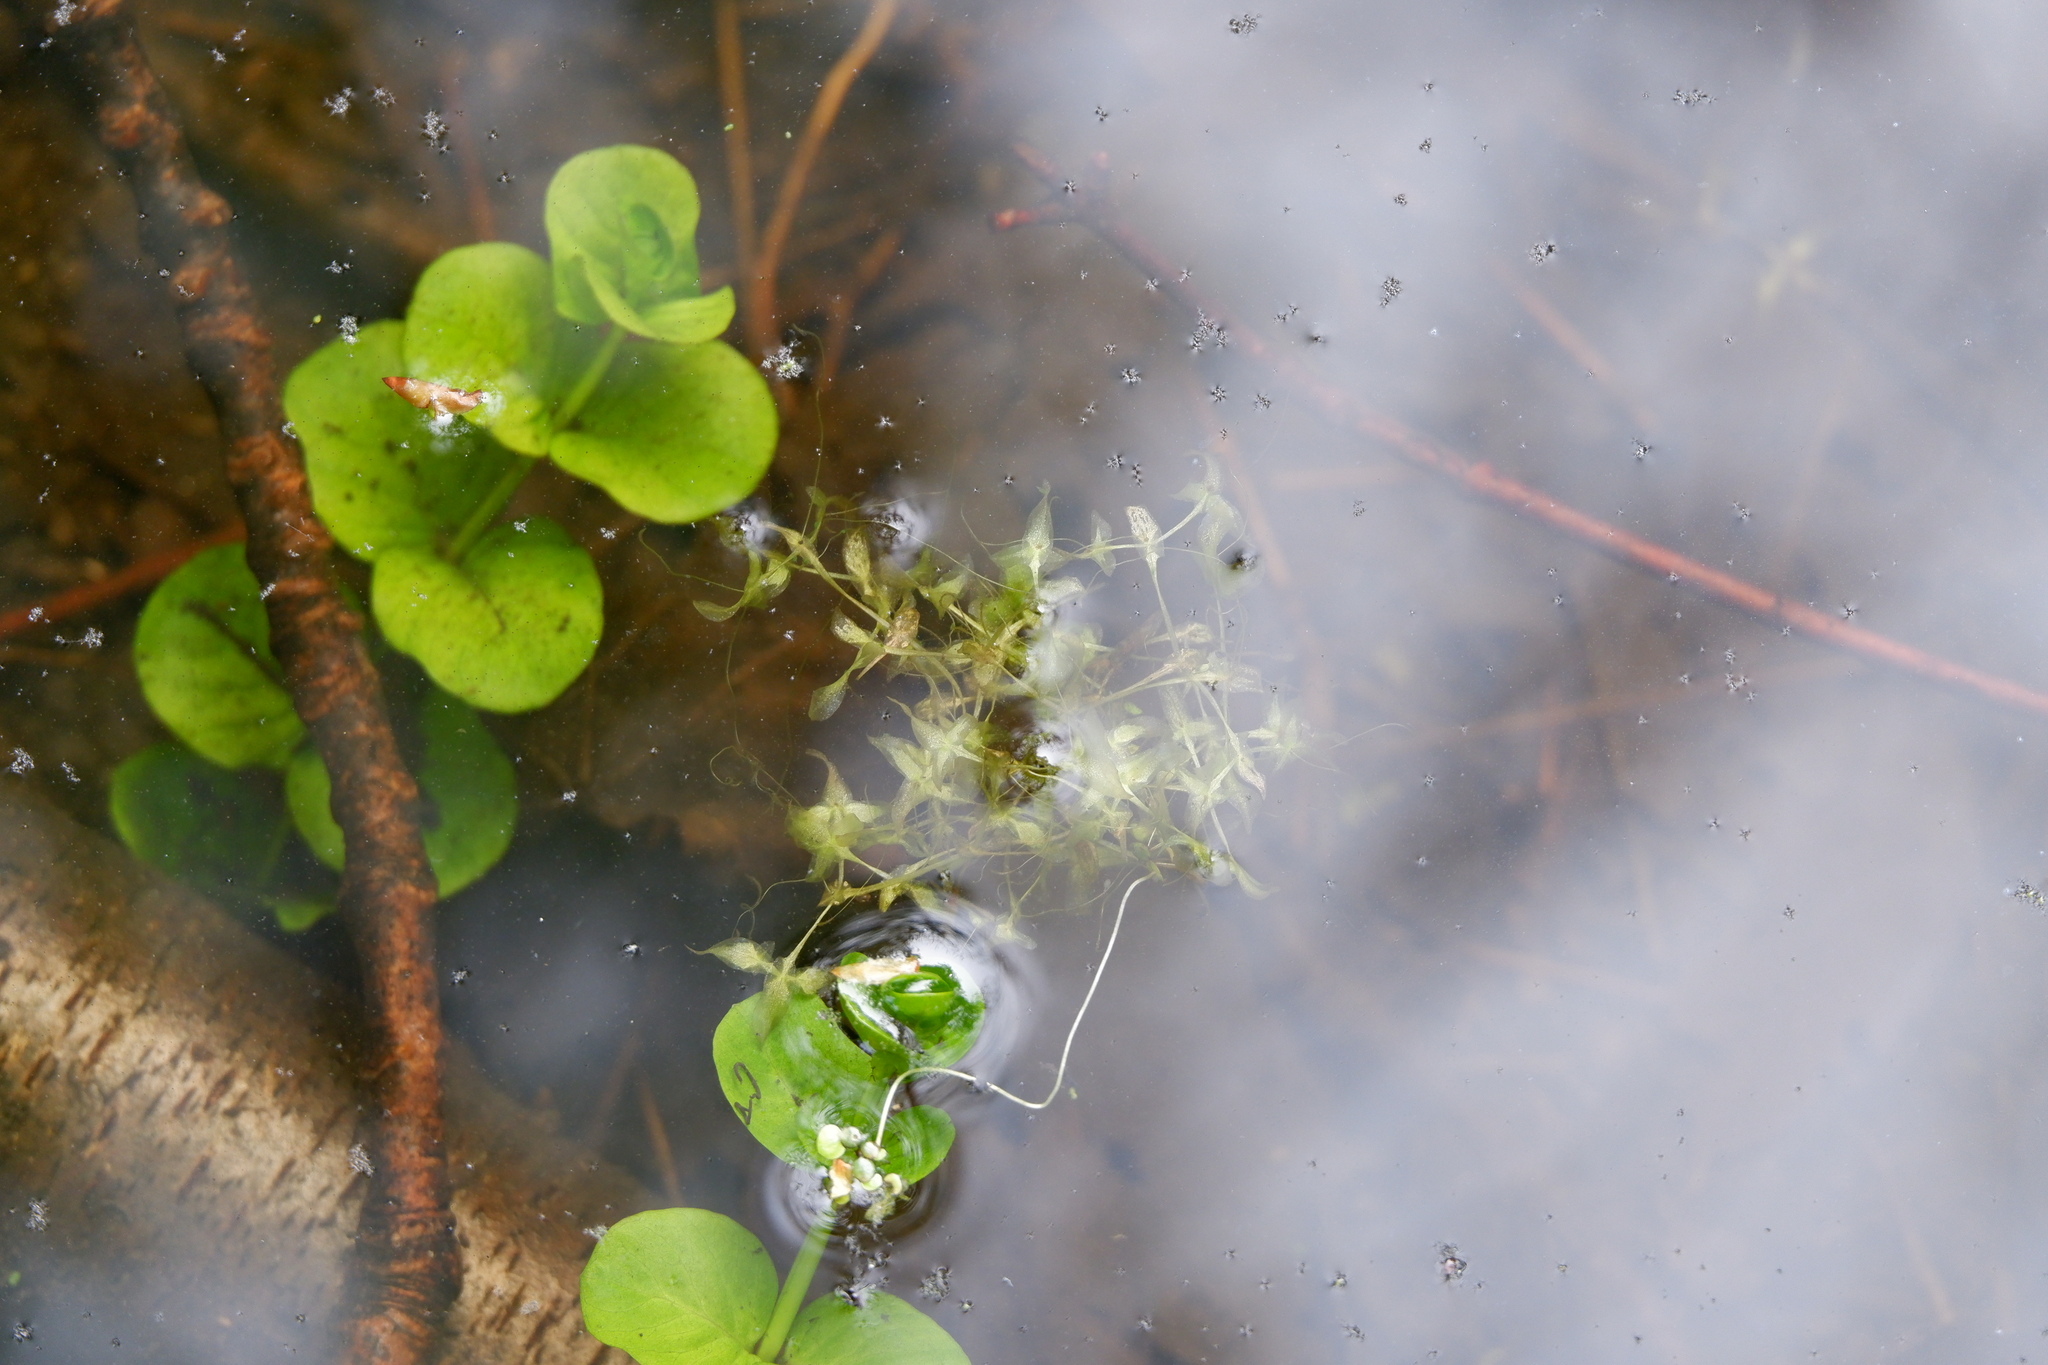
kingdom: Plantae
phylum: Tracheophyta
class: Liliopsida
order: Alismatales
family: Araceae
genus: Lemna
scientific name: Lemna trisulca
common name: Ivy-leaved duckweed
